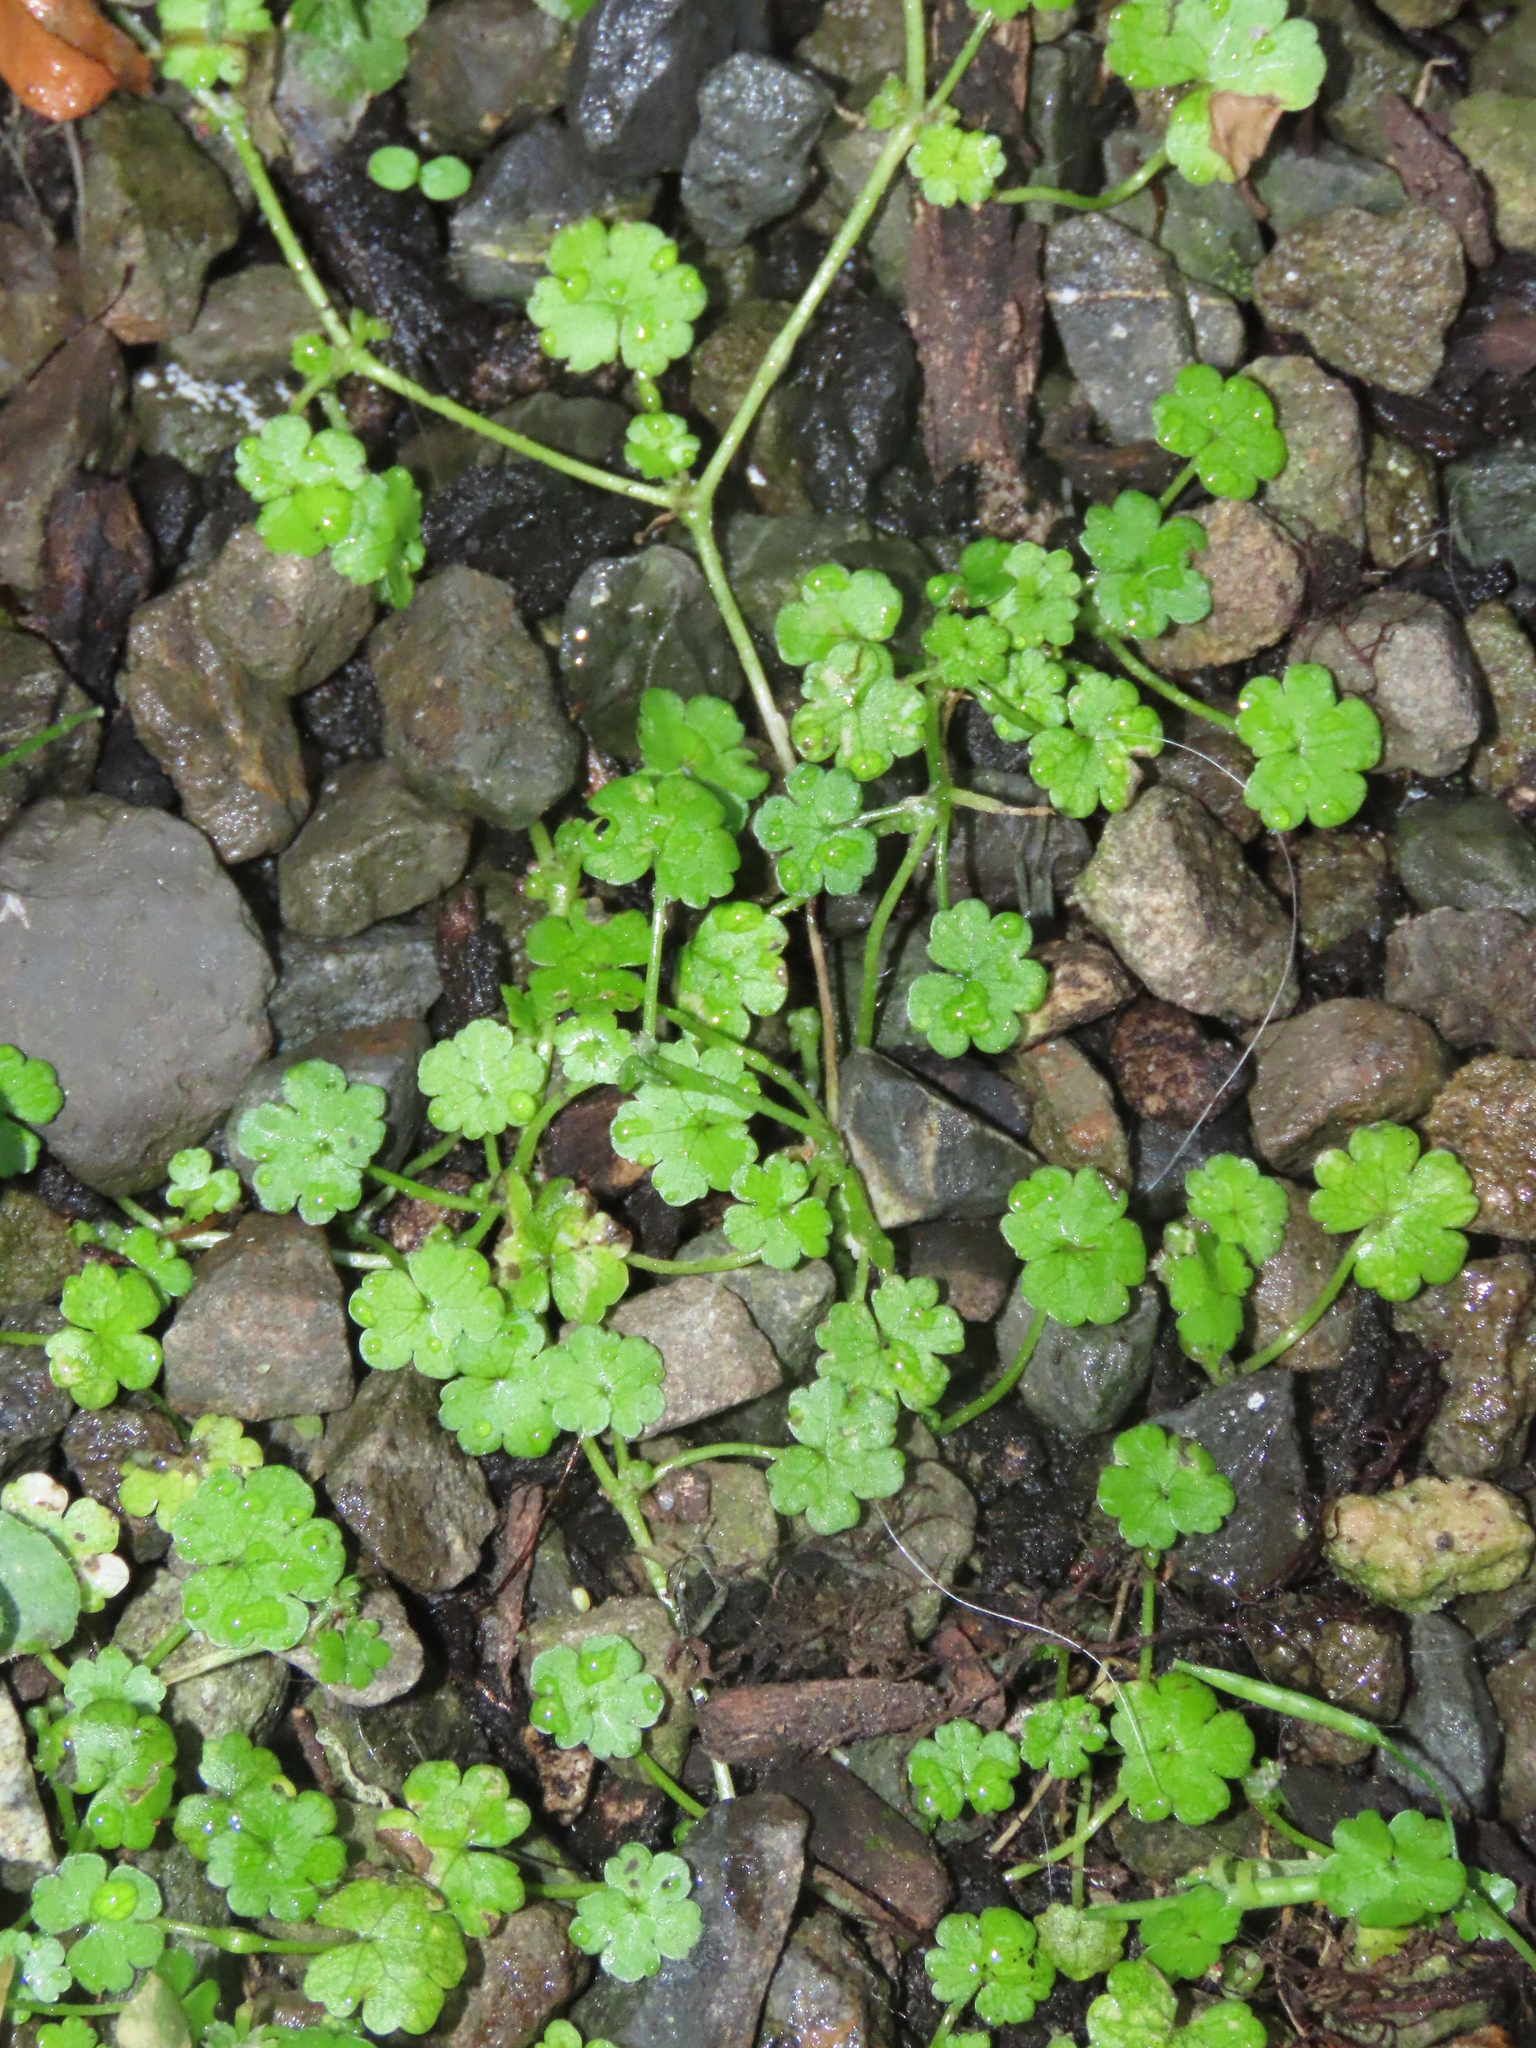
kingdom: Plantae
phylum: Tracheophyta
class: Magnoliopsida
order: Apiales
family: Araliaceae
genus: Hydrocotyle
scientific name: Hydrocotyle heteromeria
